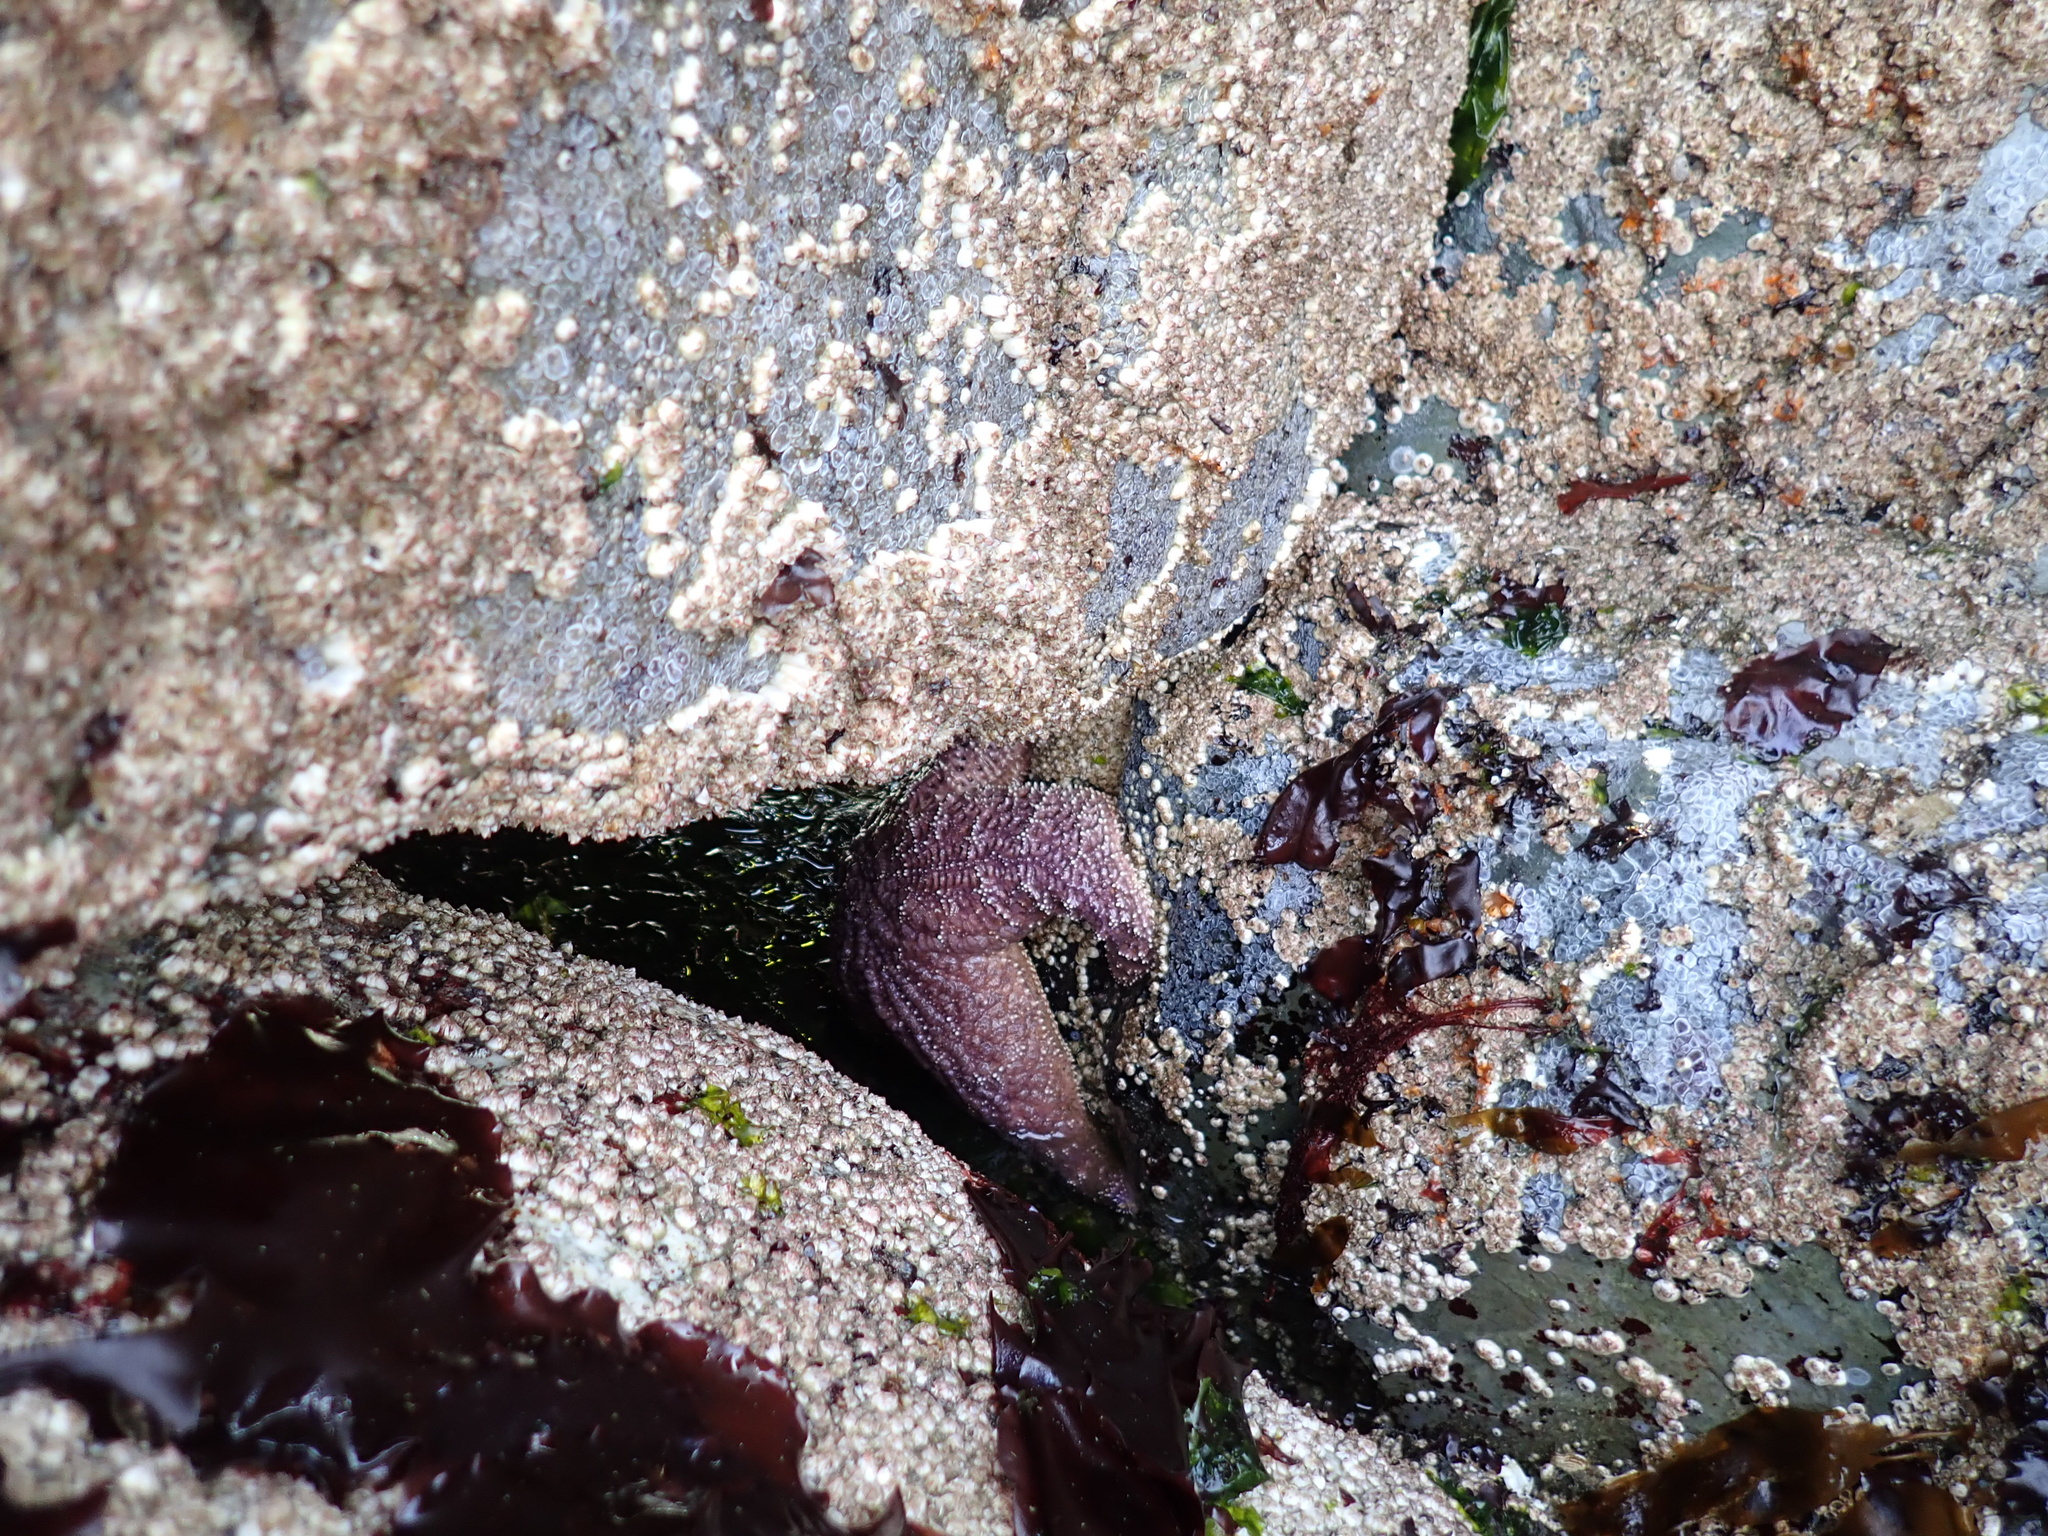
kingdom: Animalia
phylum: Echinodermata
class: Asteroidea
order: Forcipulatida
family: Asteriidae
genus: Pisaster
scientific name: Pisaster ochraceus
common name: Ochre stars
